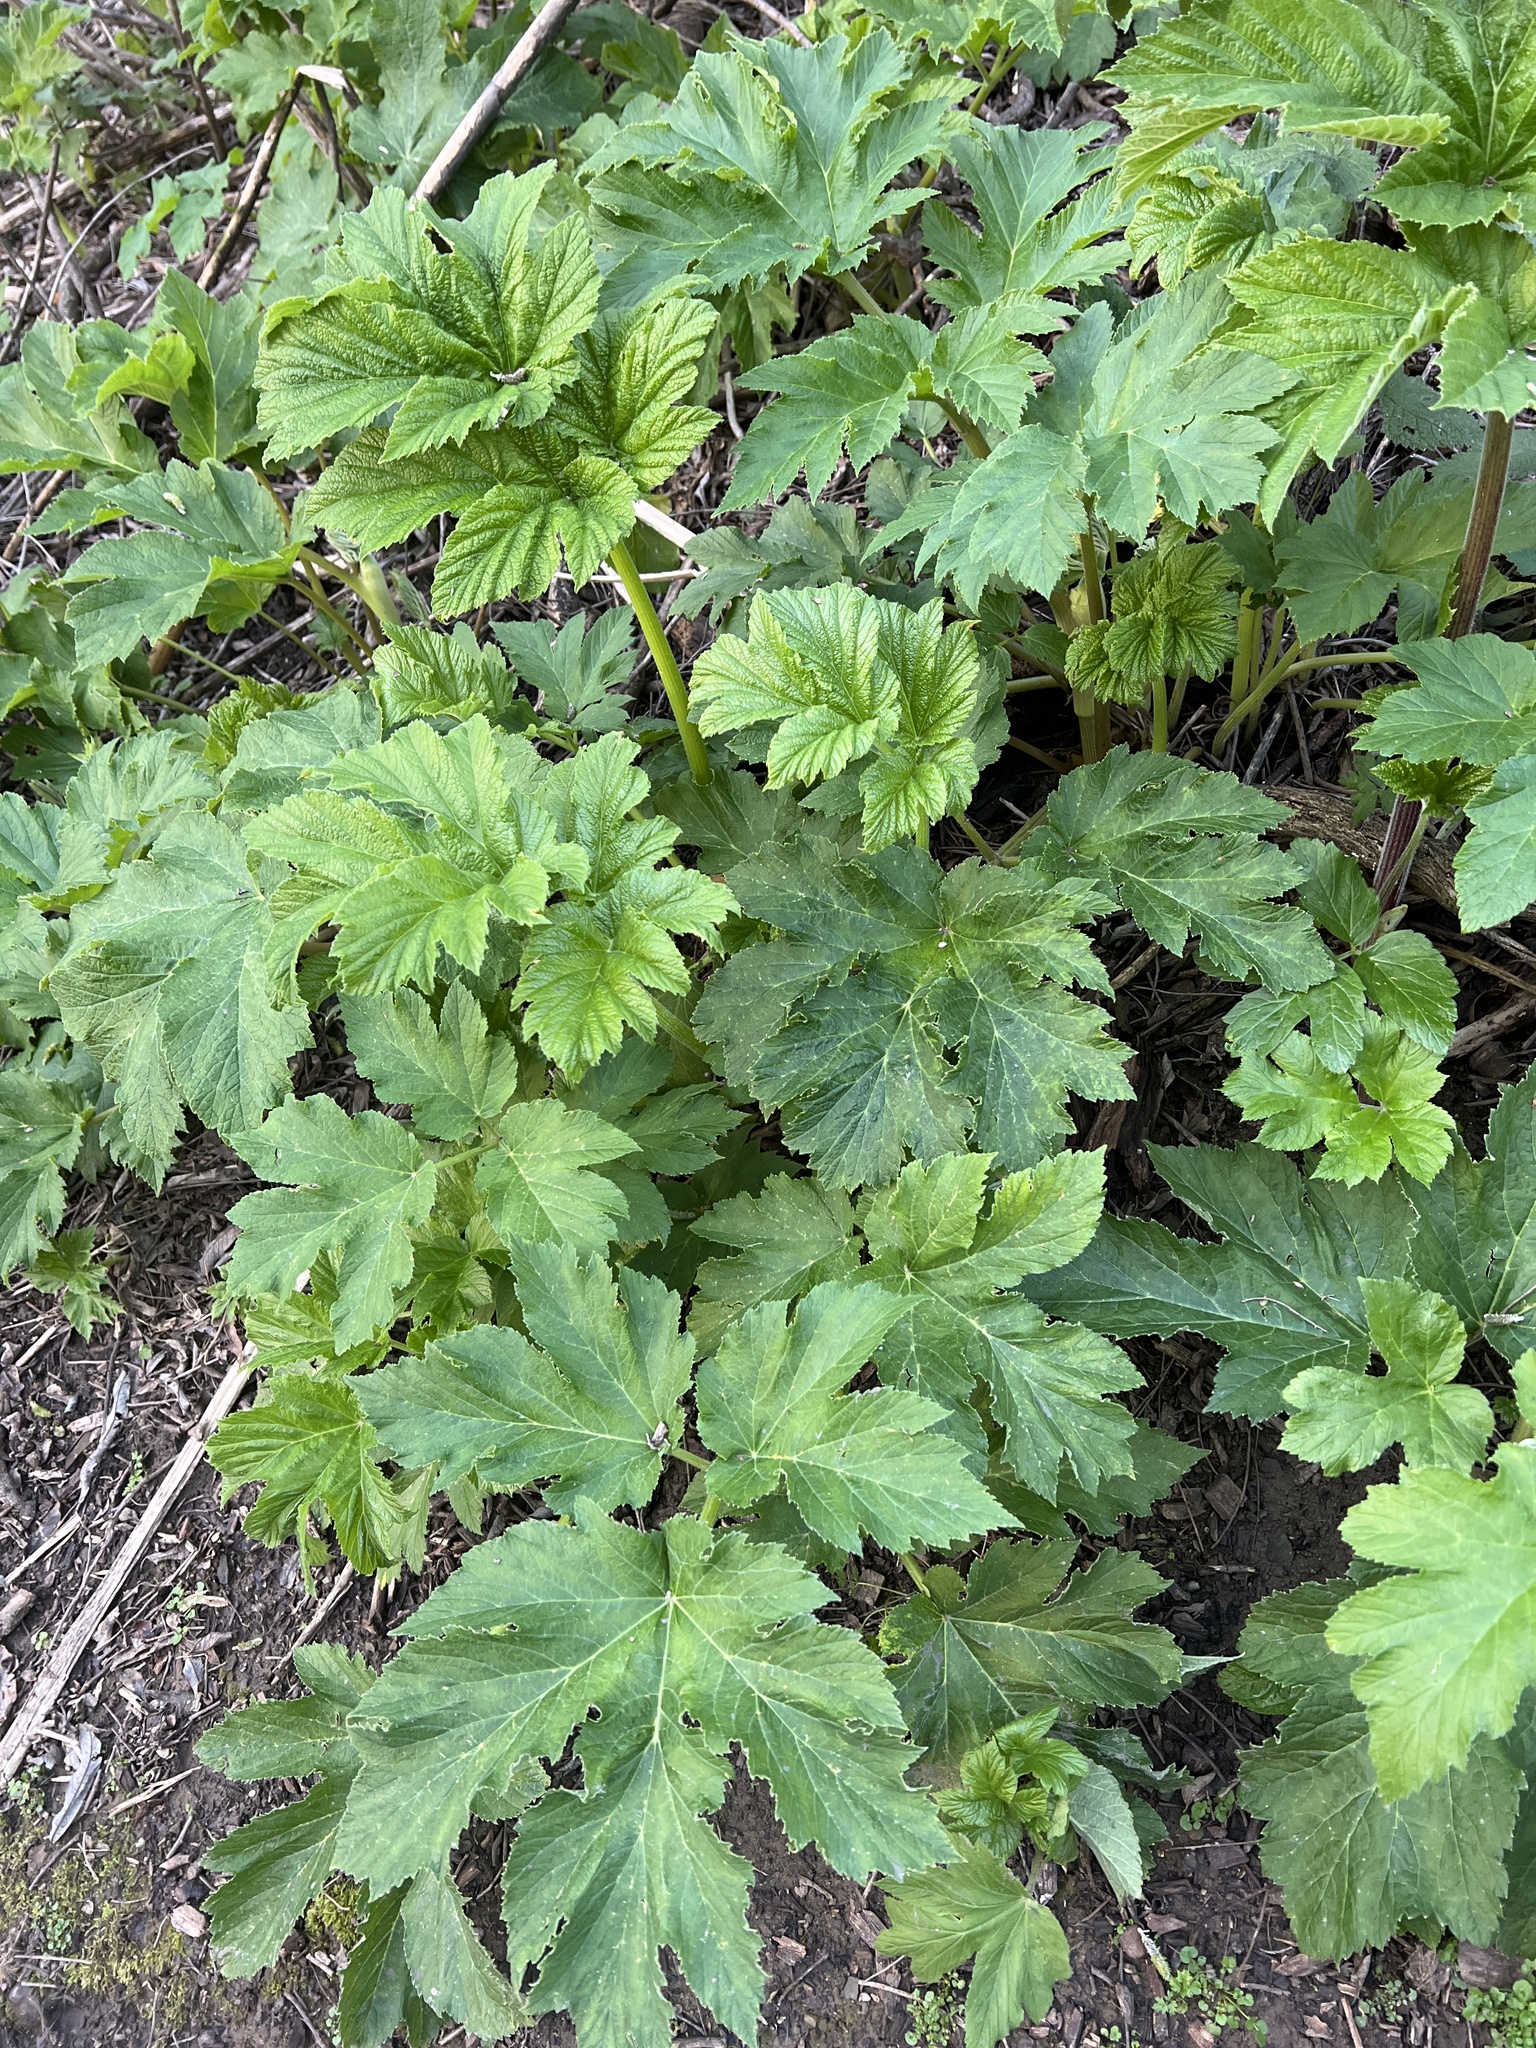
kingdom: Plantae
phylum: Tracheophyta
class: Magnoliopsida
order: Apiales
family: Apiaceae
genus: Heracleum
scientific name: Heracleum maximum
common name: American cow parsnip
